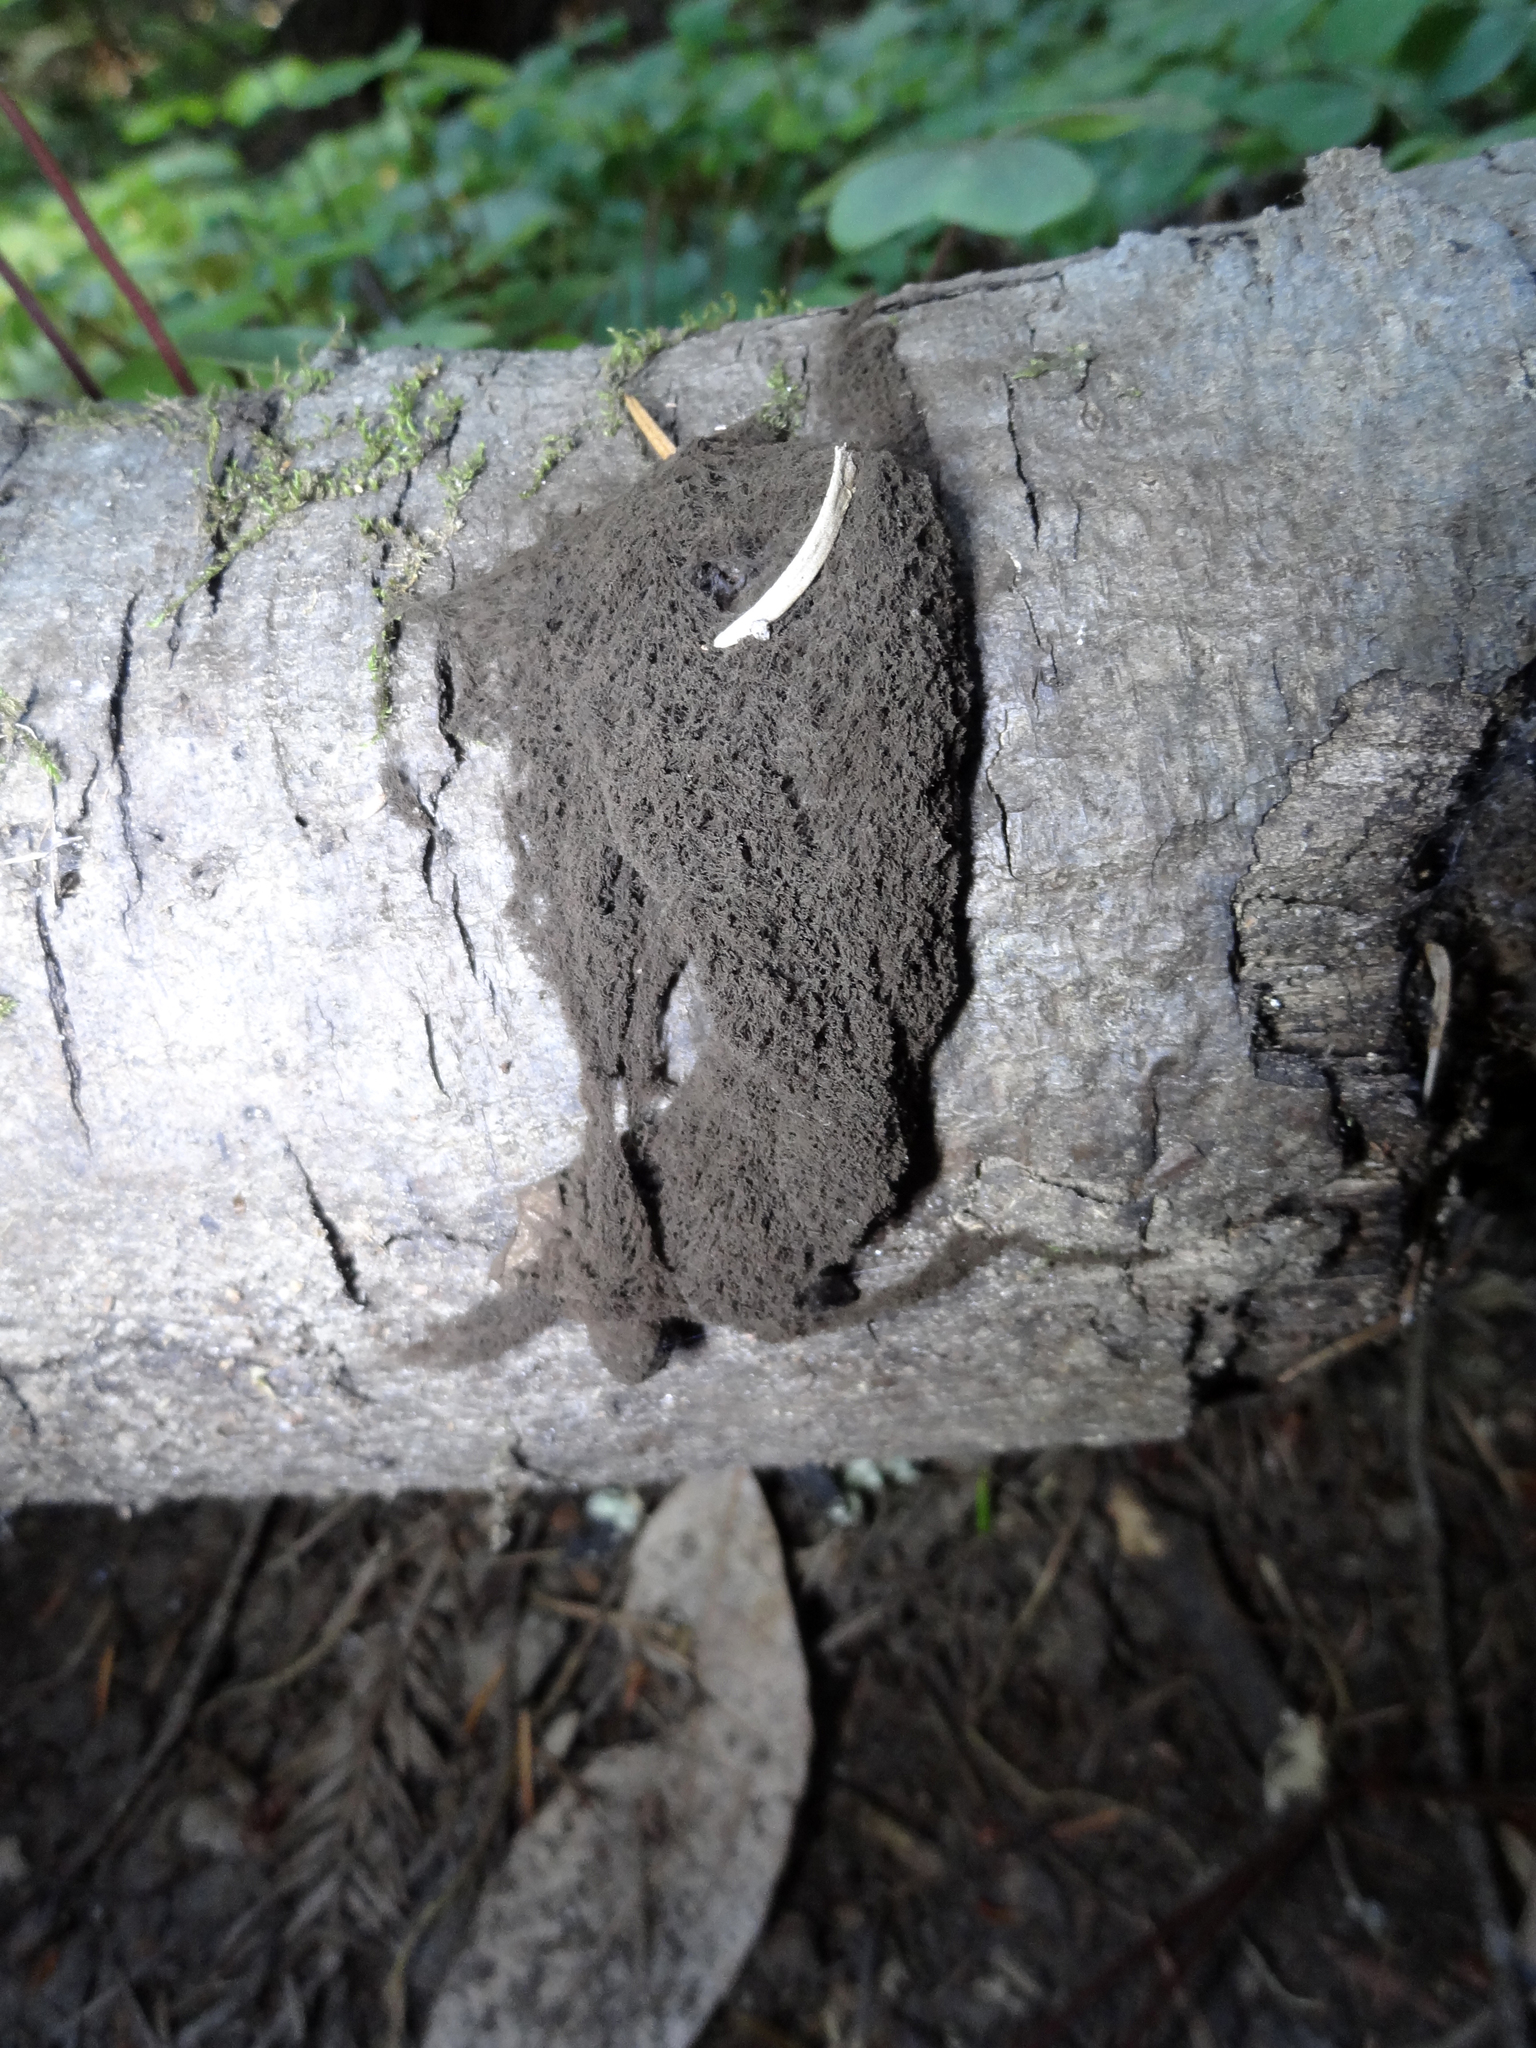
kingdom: Fungi
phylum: Basidiomycota
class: Agaricomycetes
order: Geastrales
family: Geastraceae
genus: Schenella
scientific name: Schenella microspora
